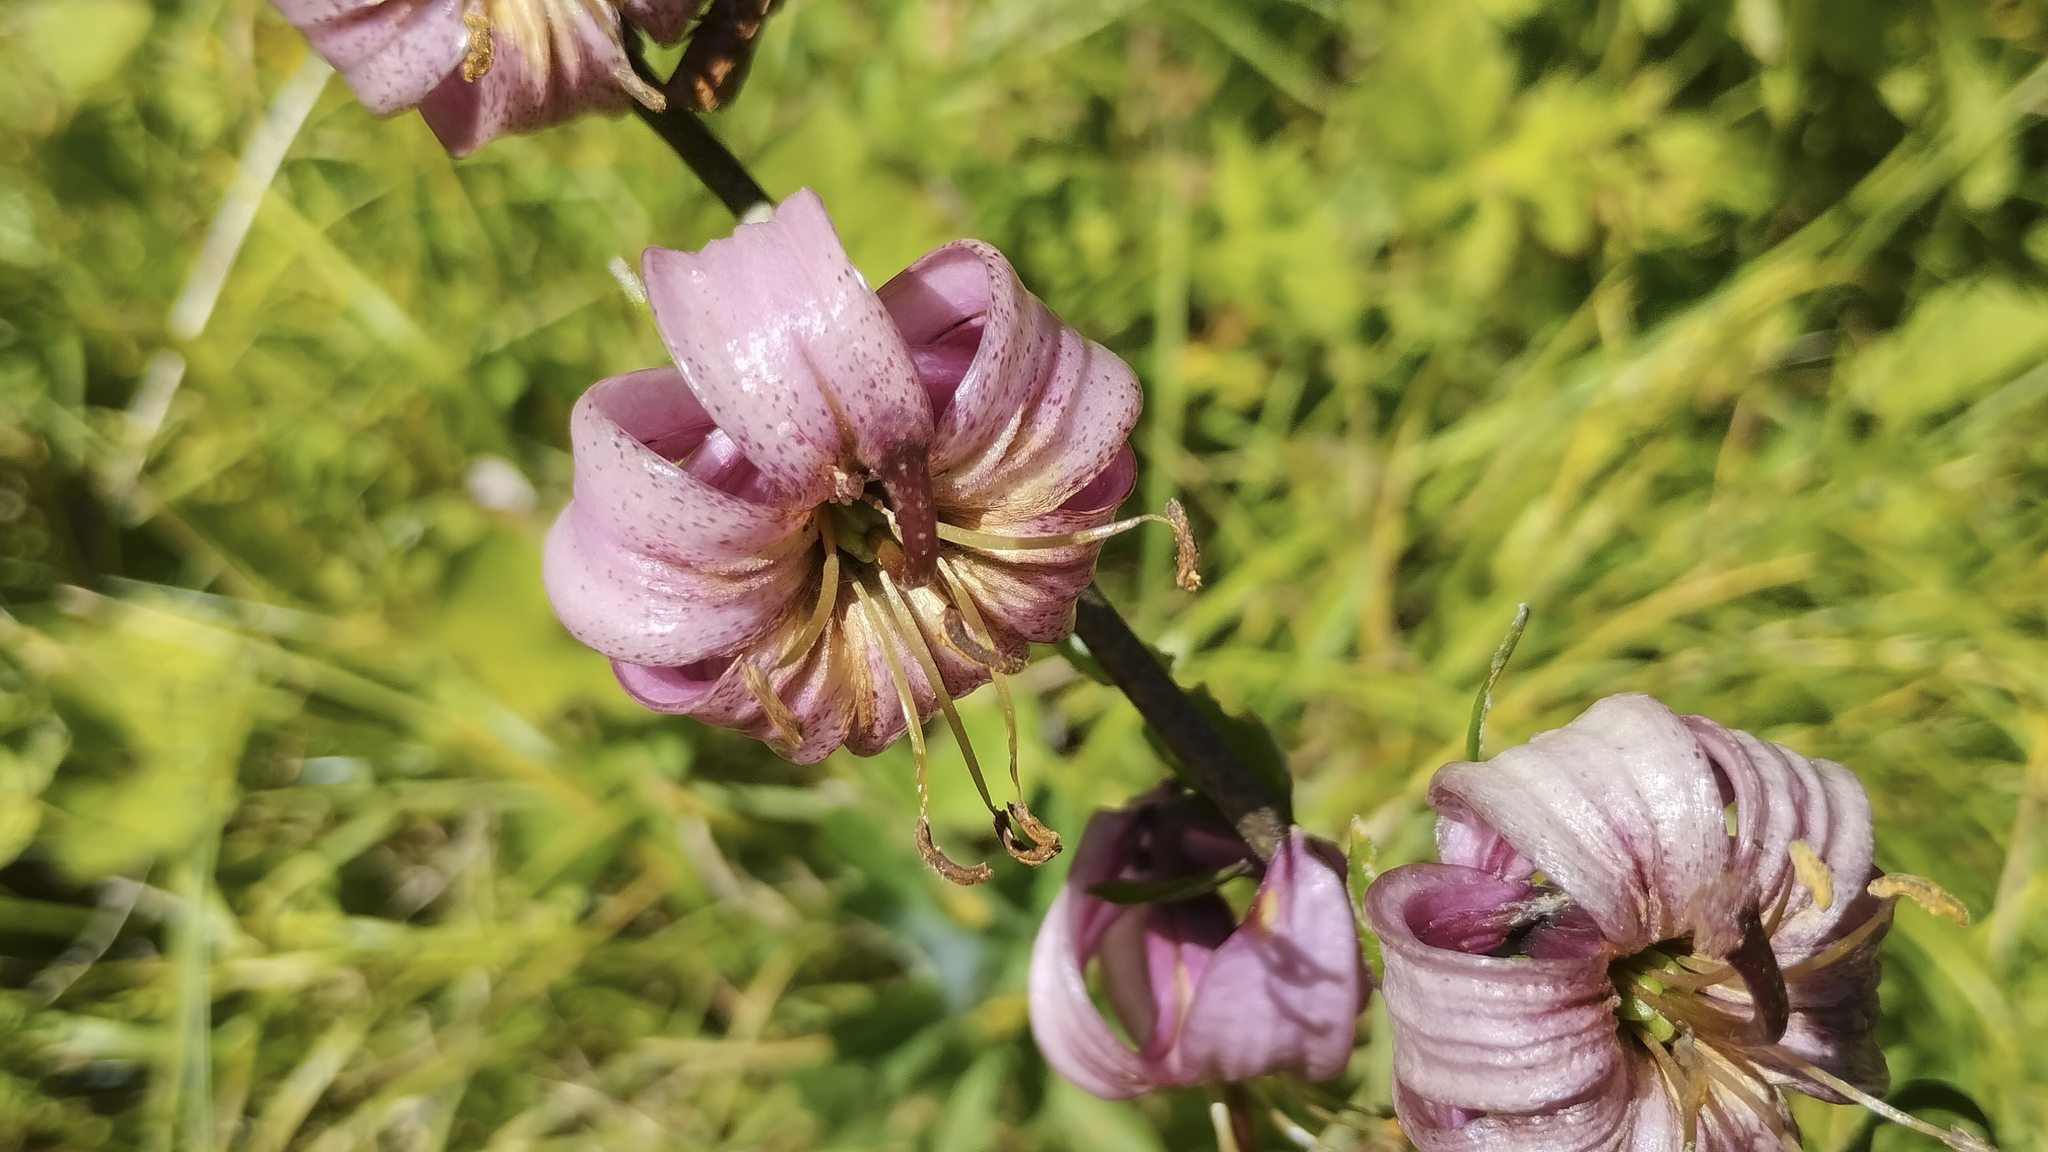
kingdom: Plantae
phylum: Tracheophyta
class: Liliopsida
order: Liliales
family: Liliaceae
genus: Lilium
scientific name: Lilium martagon
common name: Martagon lily
